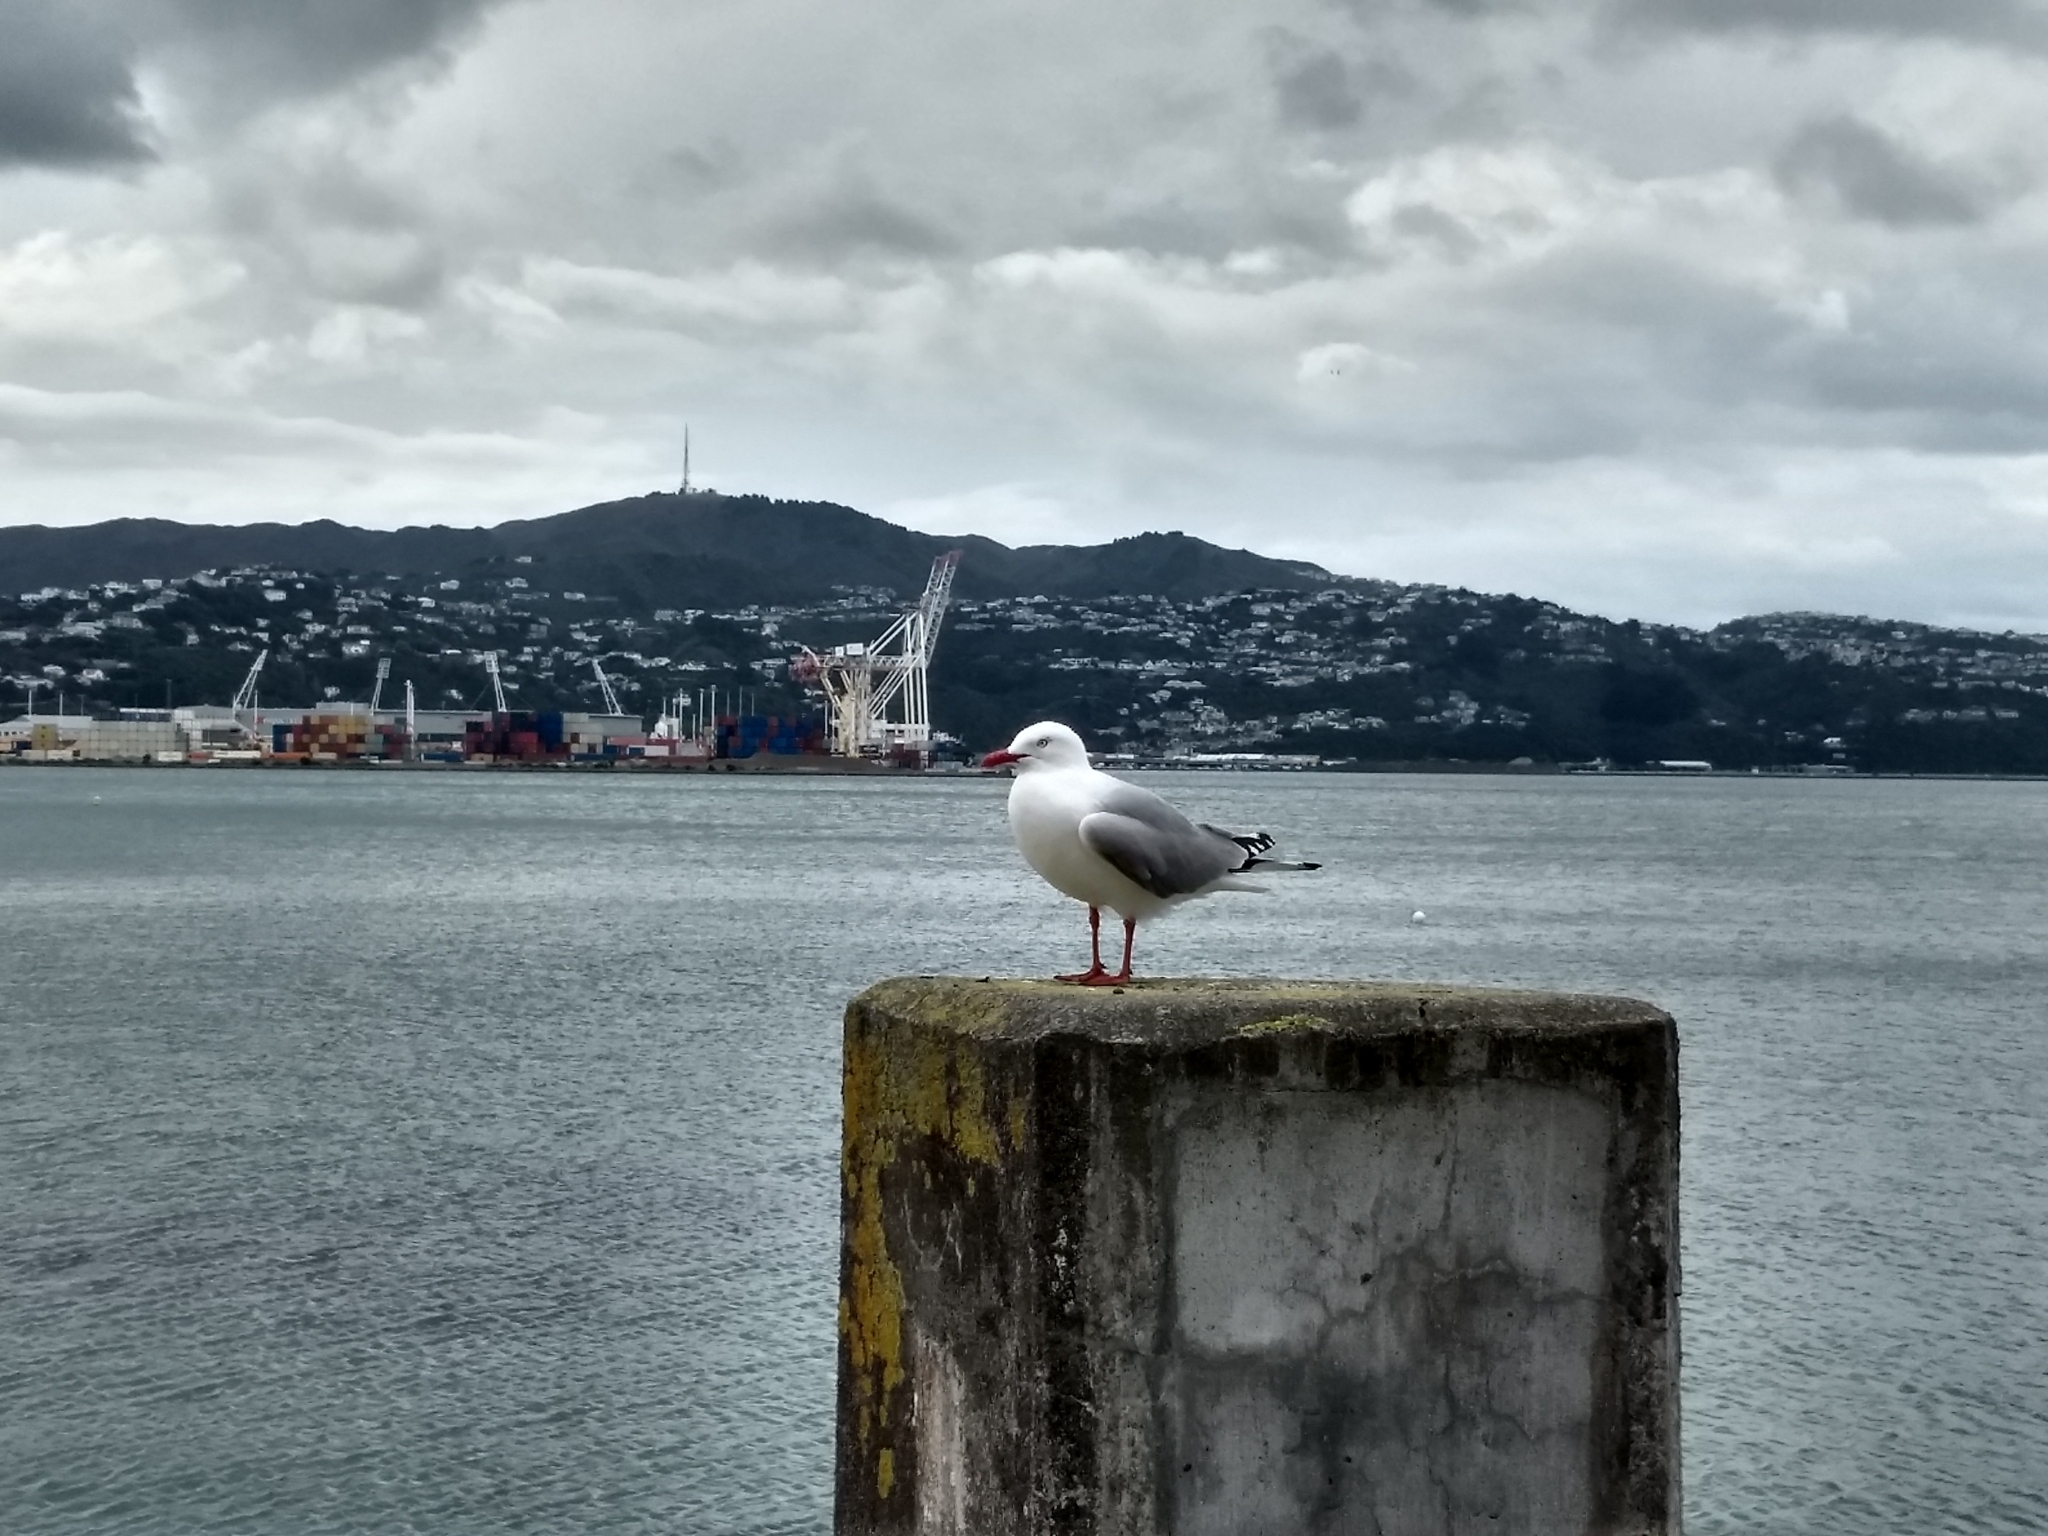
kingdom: Animalia
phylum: Chordata
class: Aves
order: Charadriiformes
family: Laridae
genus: Chroicocephalus
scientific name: Chroicocephalus novaehollandiae
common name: Silver gull
